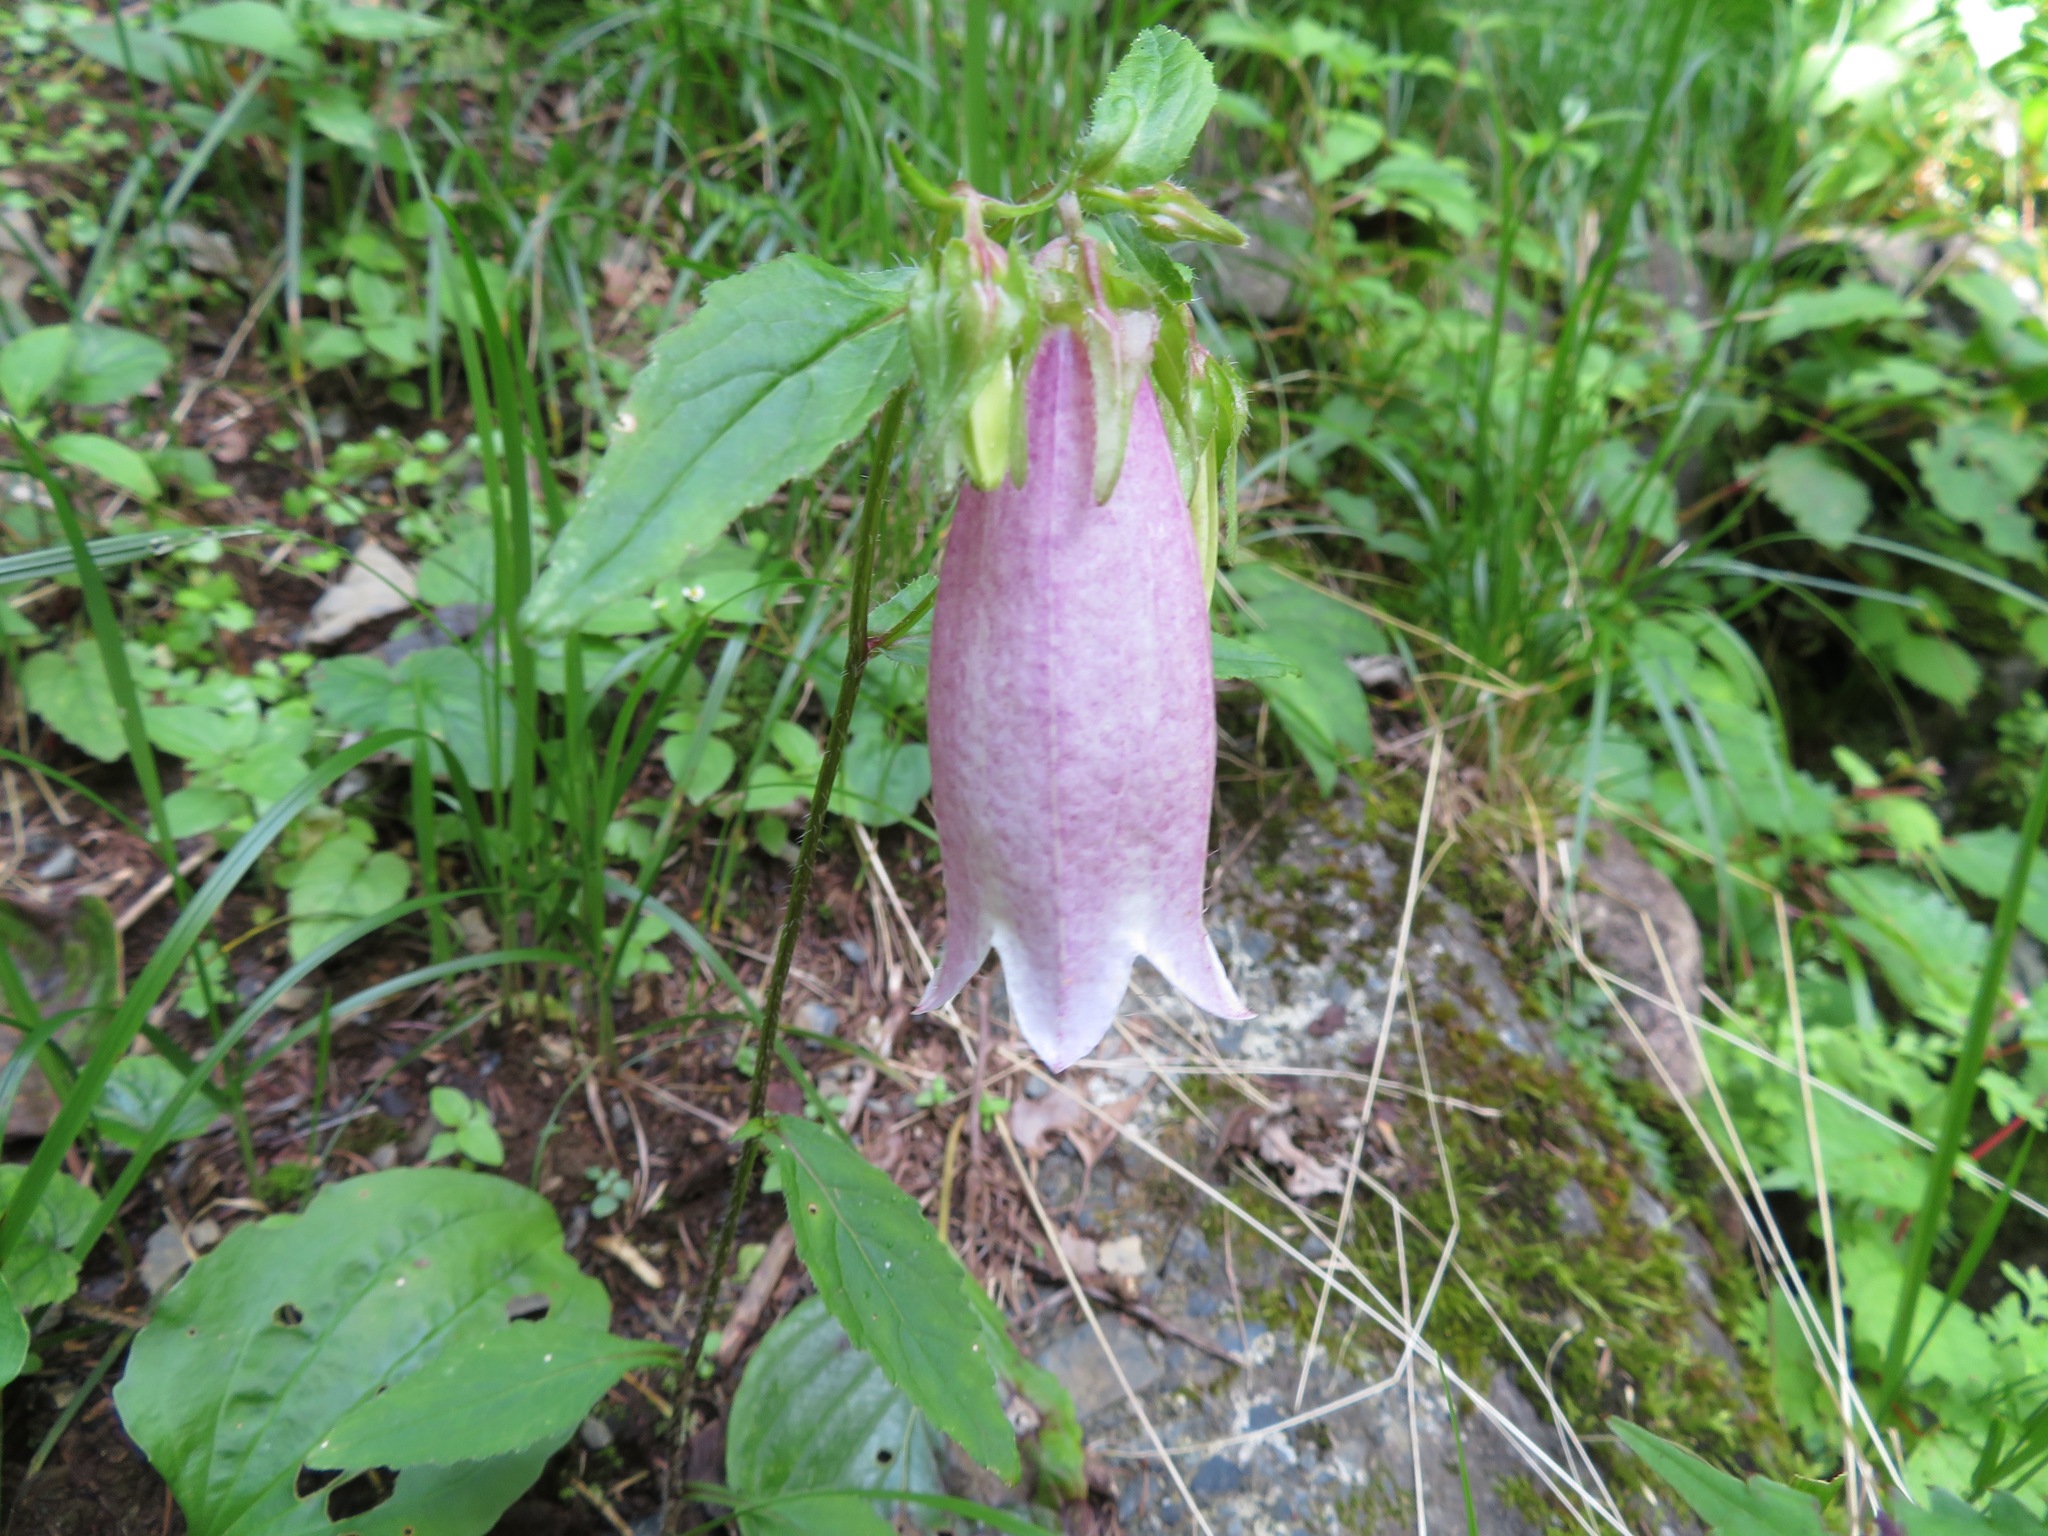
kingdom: Plantae
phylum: Tracheophyta
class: Magnoliopsida
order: Asterales
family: Campanulaceae
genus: Campanula
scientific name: Campanula punctata
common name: Spotted bellflower
